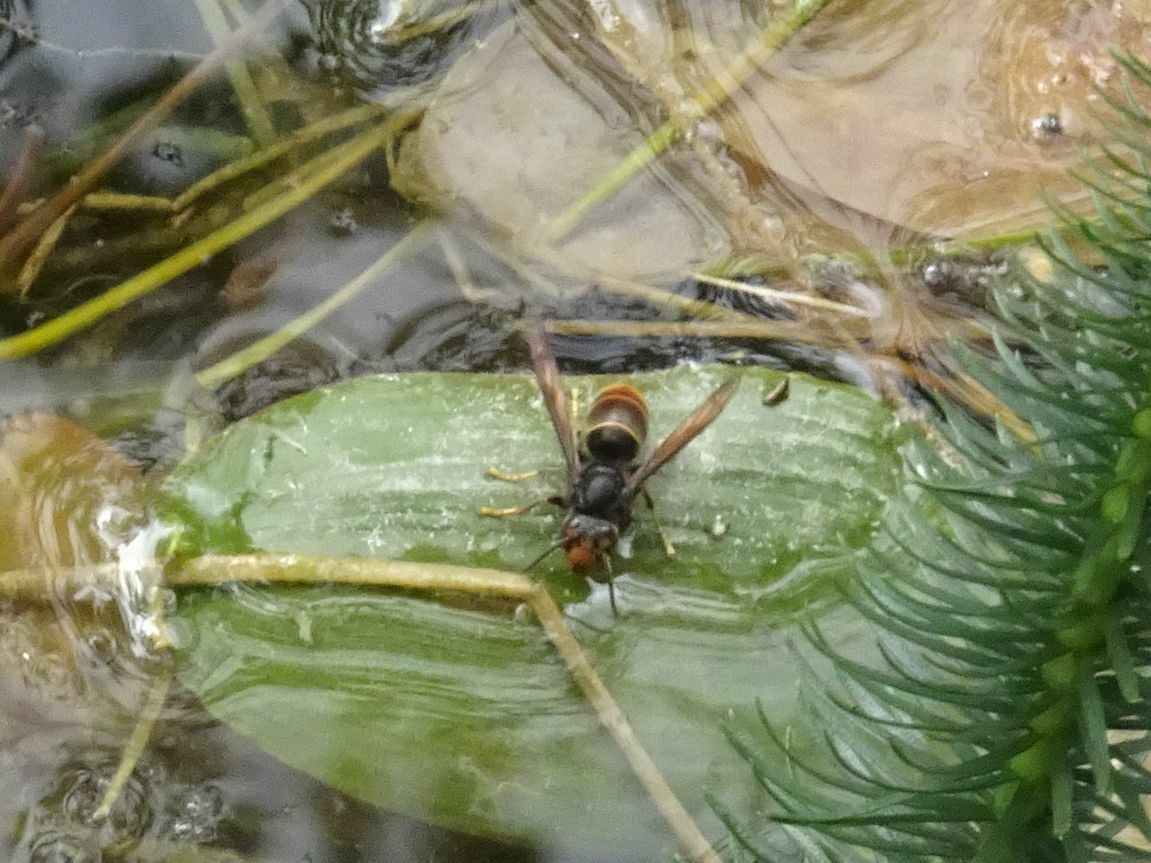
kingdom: Animalia
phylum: Arthropoda
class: Insecta
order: Hymenoptera
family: Vespidae
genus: Vespa
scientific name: Vespa velutina
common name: Asian hornet
